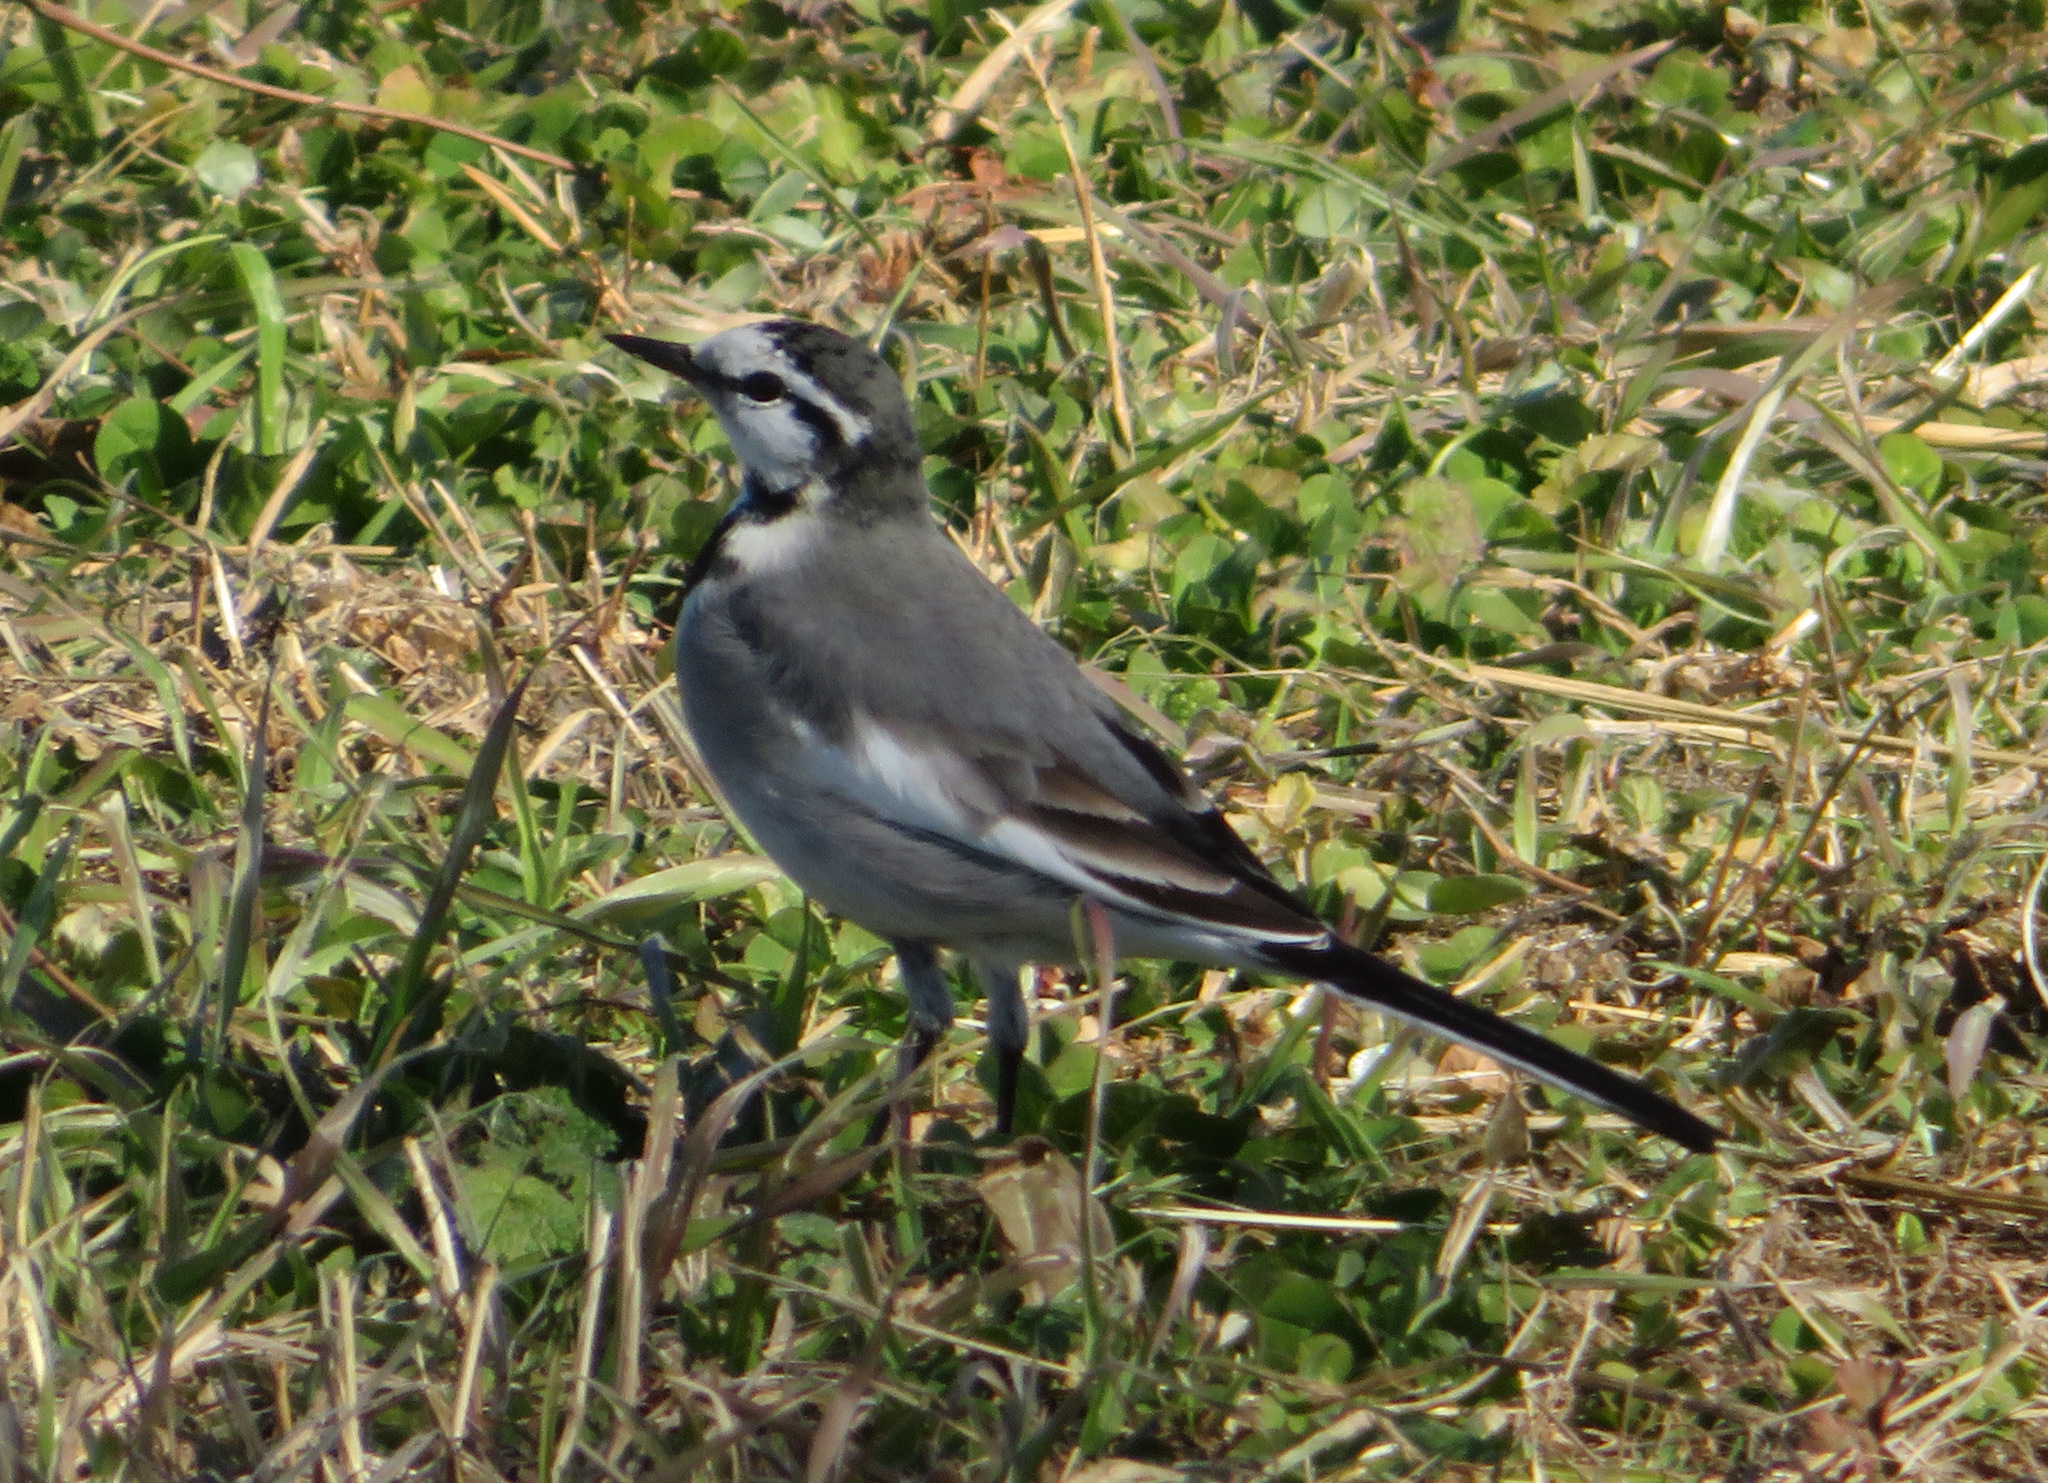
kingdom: Animalia
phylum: Chordata
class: Aves
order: Passeriformes
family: Motacillidae
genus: Motacilla
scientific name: Motacilla alba
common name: White wagtail
